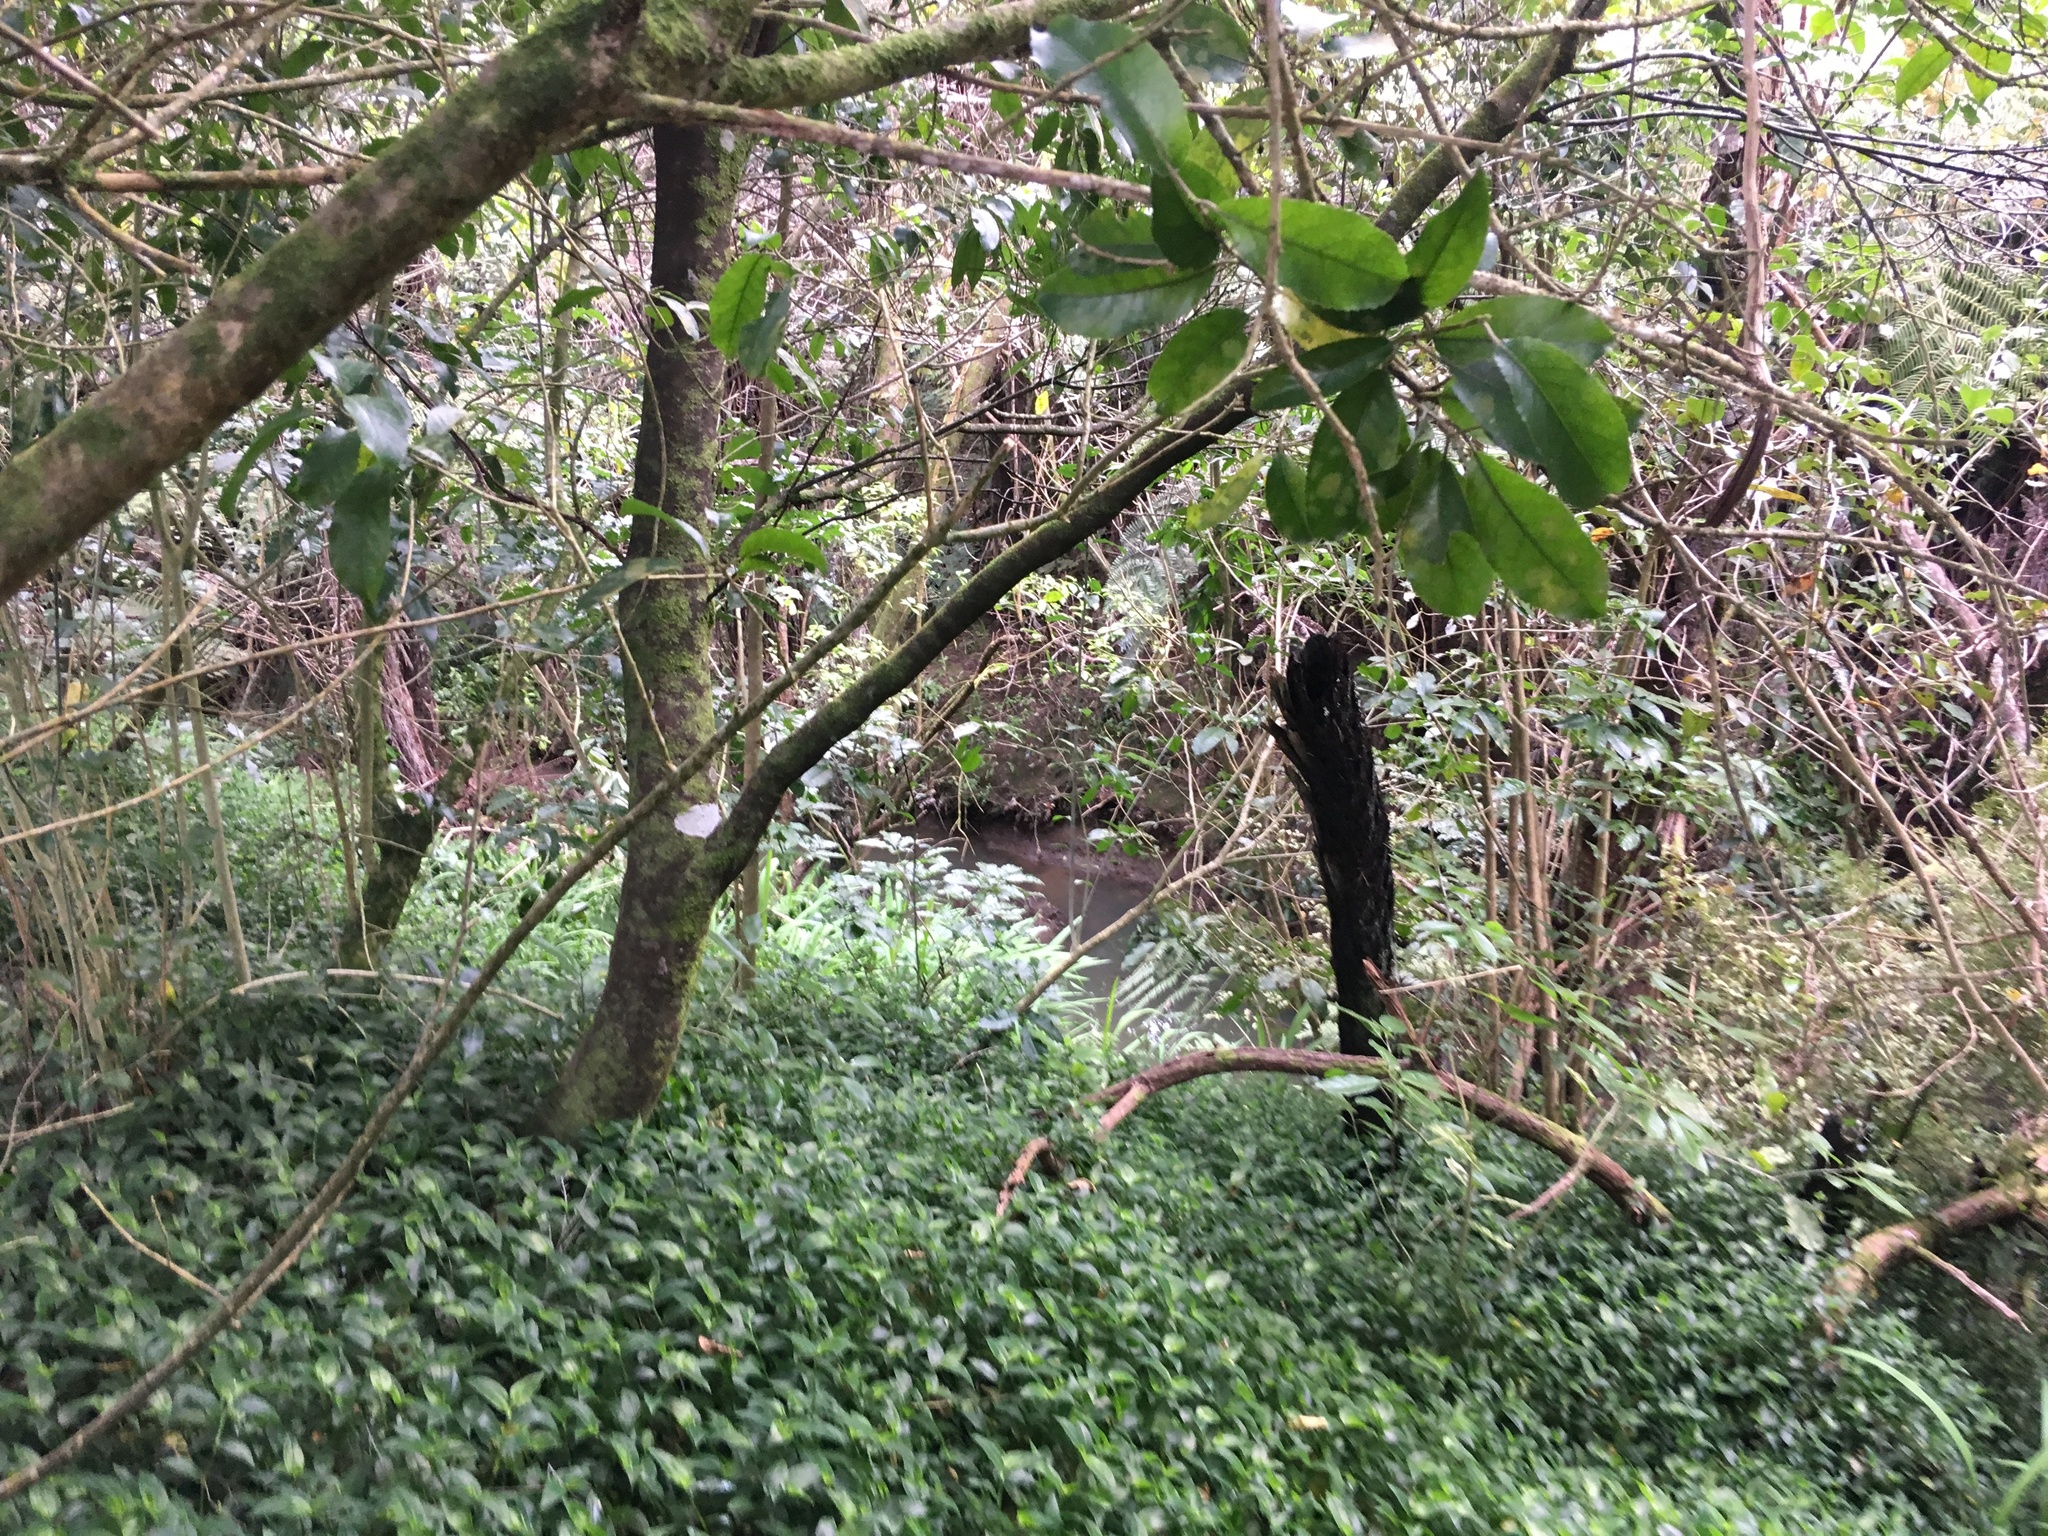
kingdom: Plantae
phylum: Tracheophyta
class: Liliopsida
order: Commelinales
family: Commelinaceae
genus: Tradescantia
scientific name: Tradescantia fluminensis
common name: Wandering-jew
